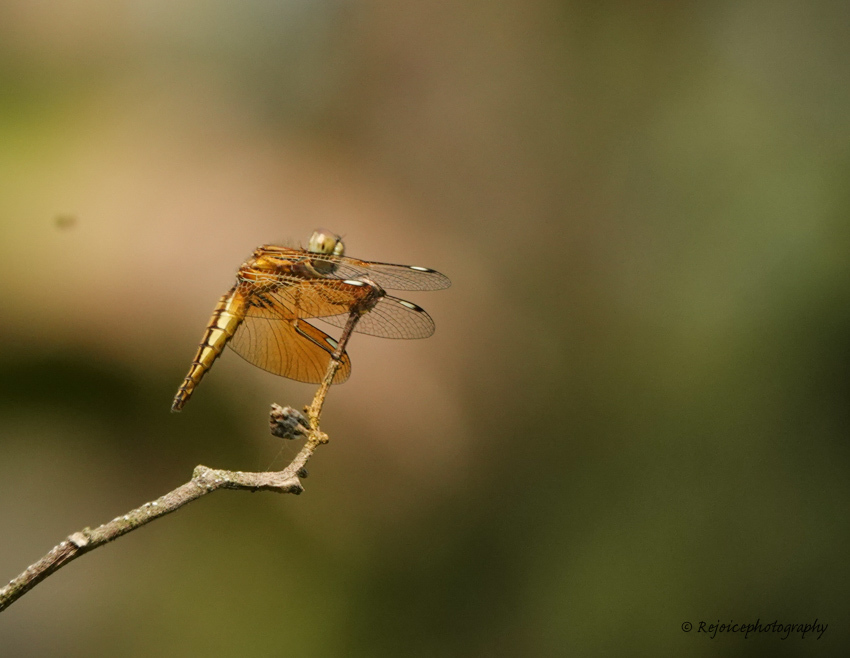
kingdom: Animalia
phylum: Arthropoda
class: Insecta
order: Odonata
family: Libellulidae
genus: Palpopleura
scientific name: Palpopleura sexmaculata
